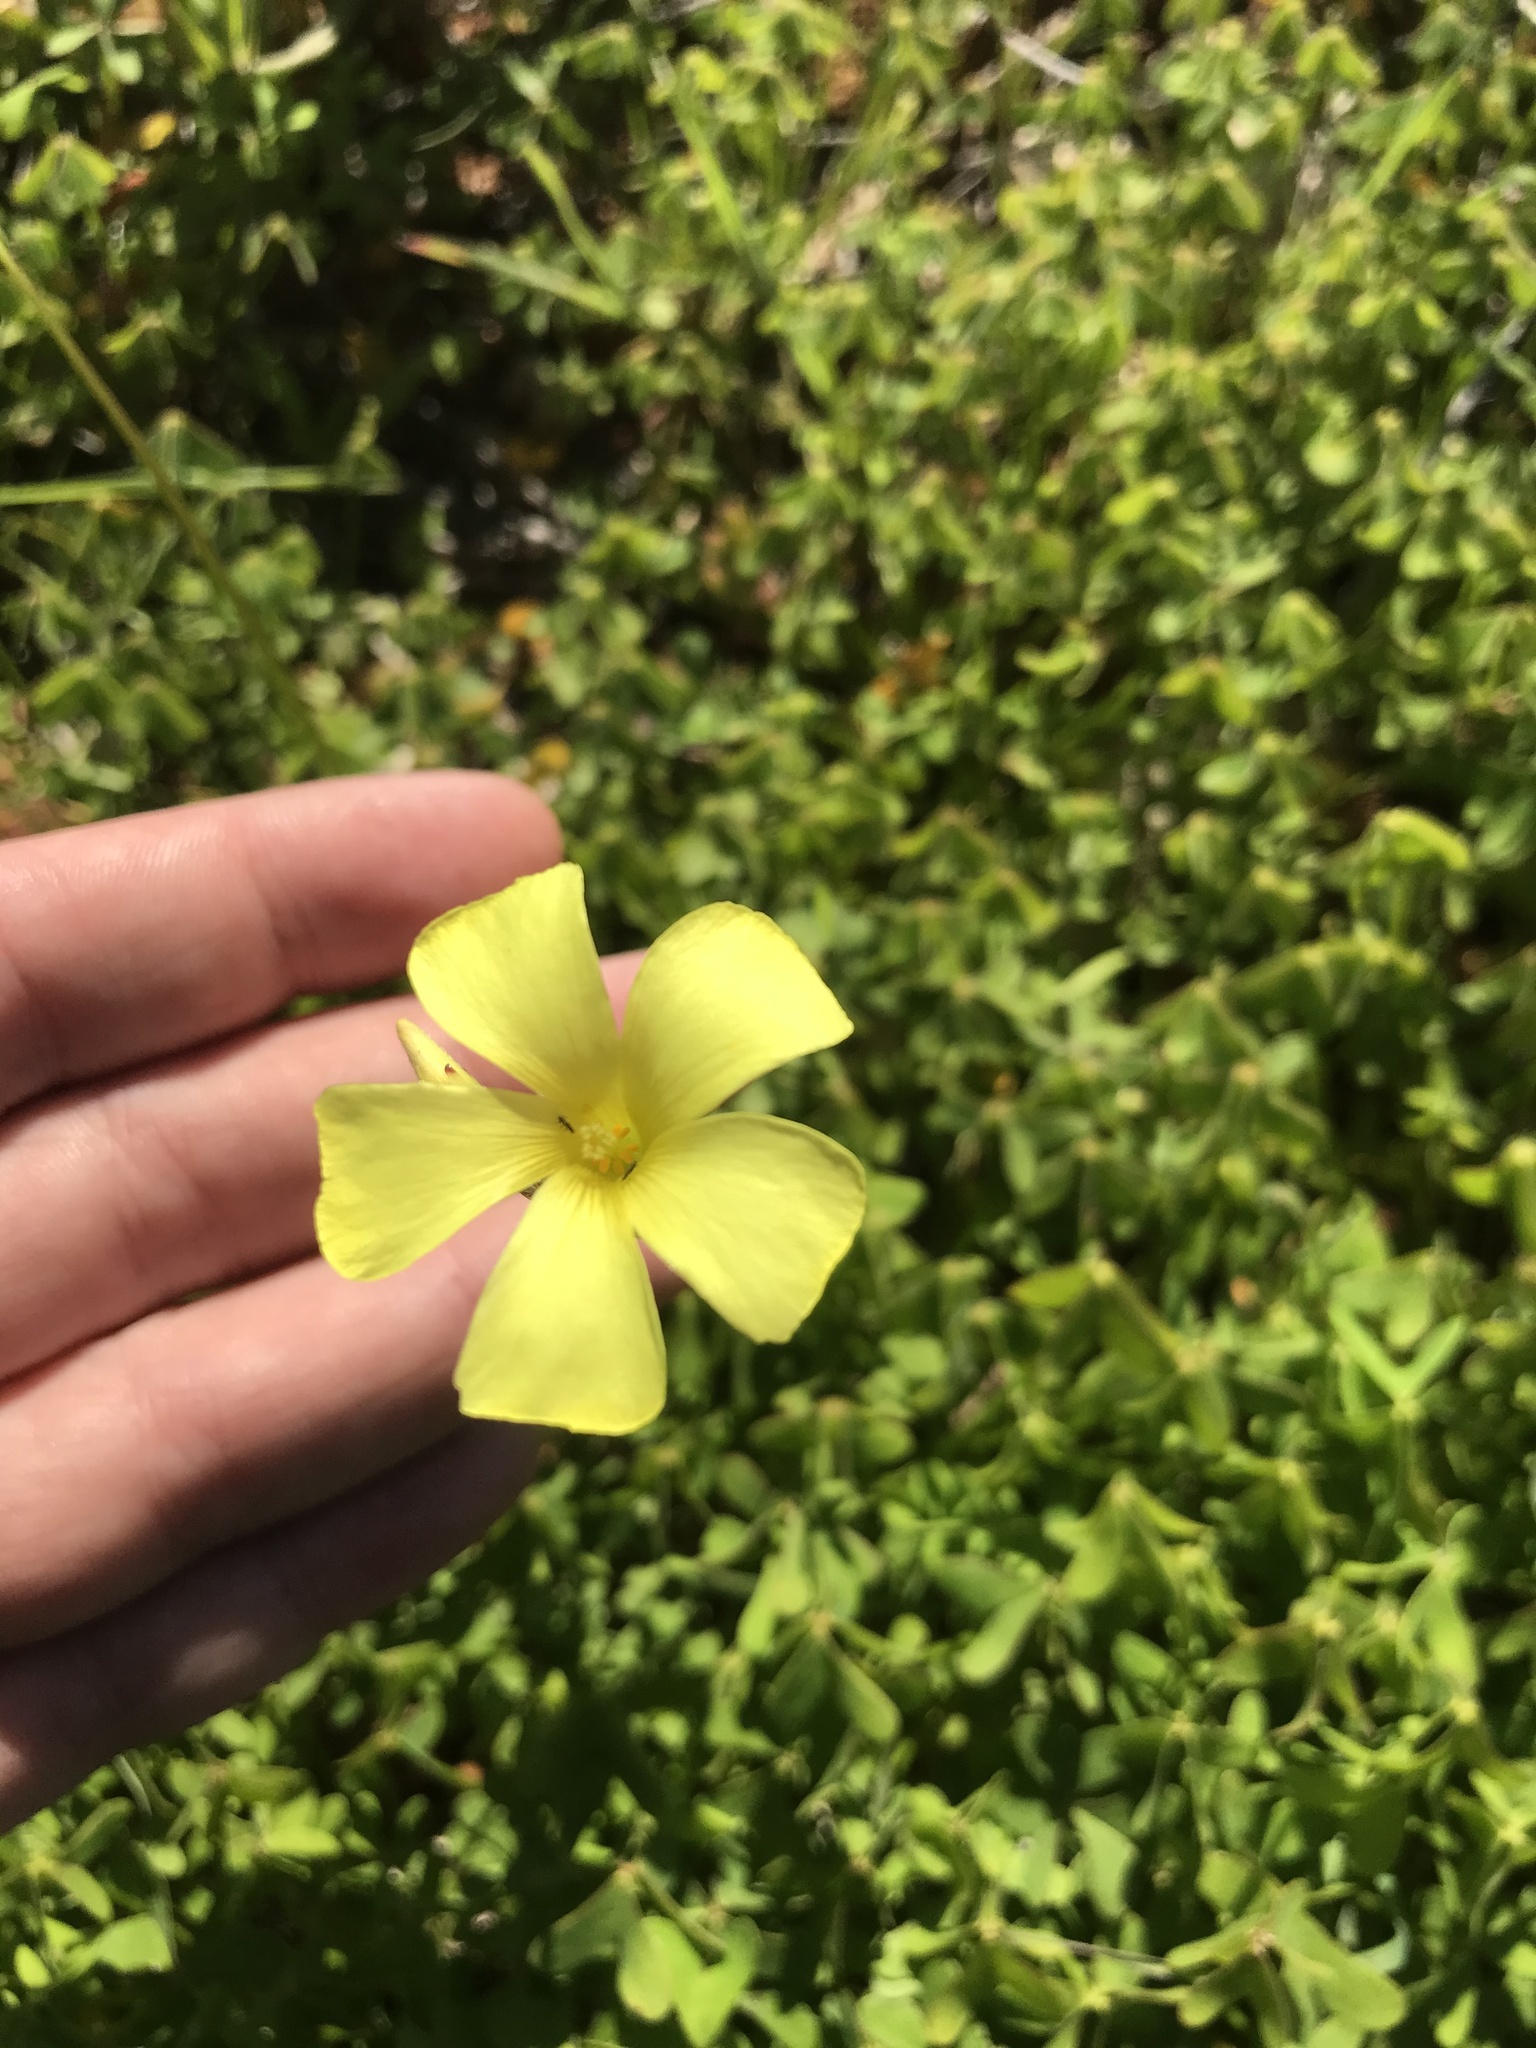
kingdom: Plantae
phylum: Tracheophyta
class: Magnoliopsida
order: Oxalidales
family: Oxalidaceae
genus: Oxalis
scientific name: Oxalis pes-caprae
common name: Bermuda-buttercup
